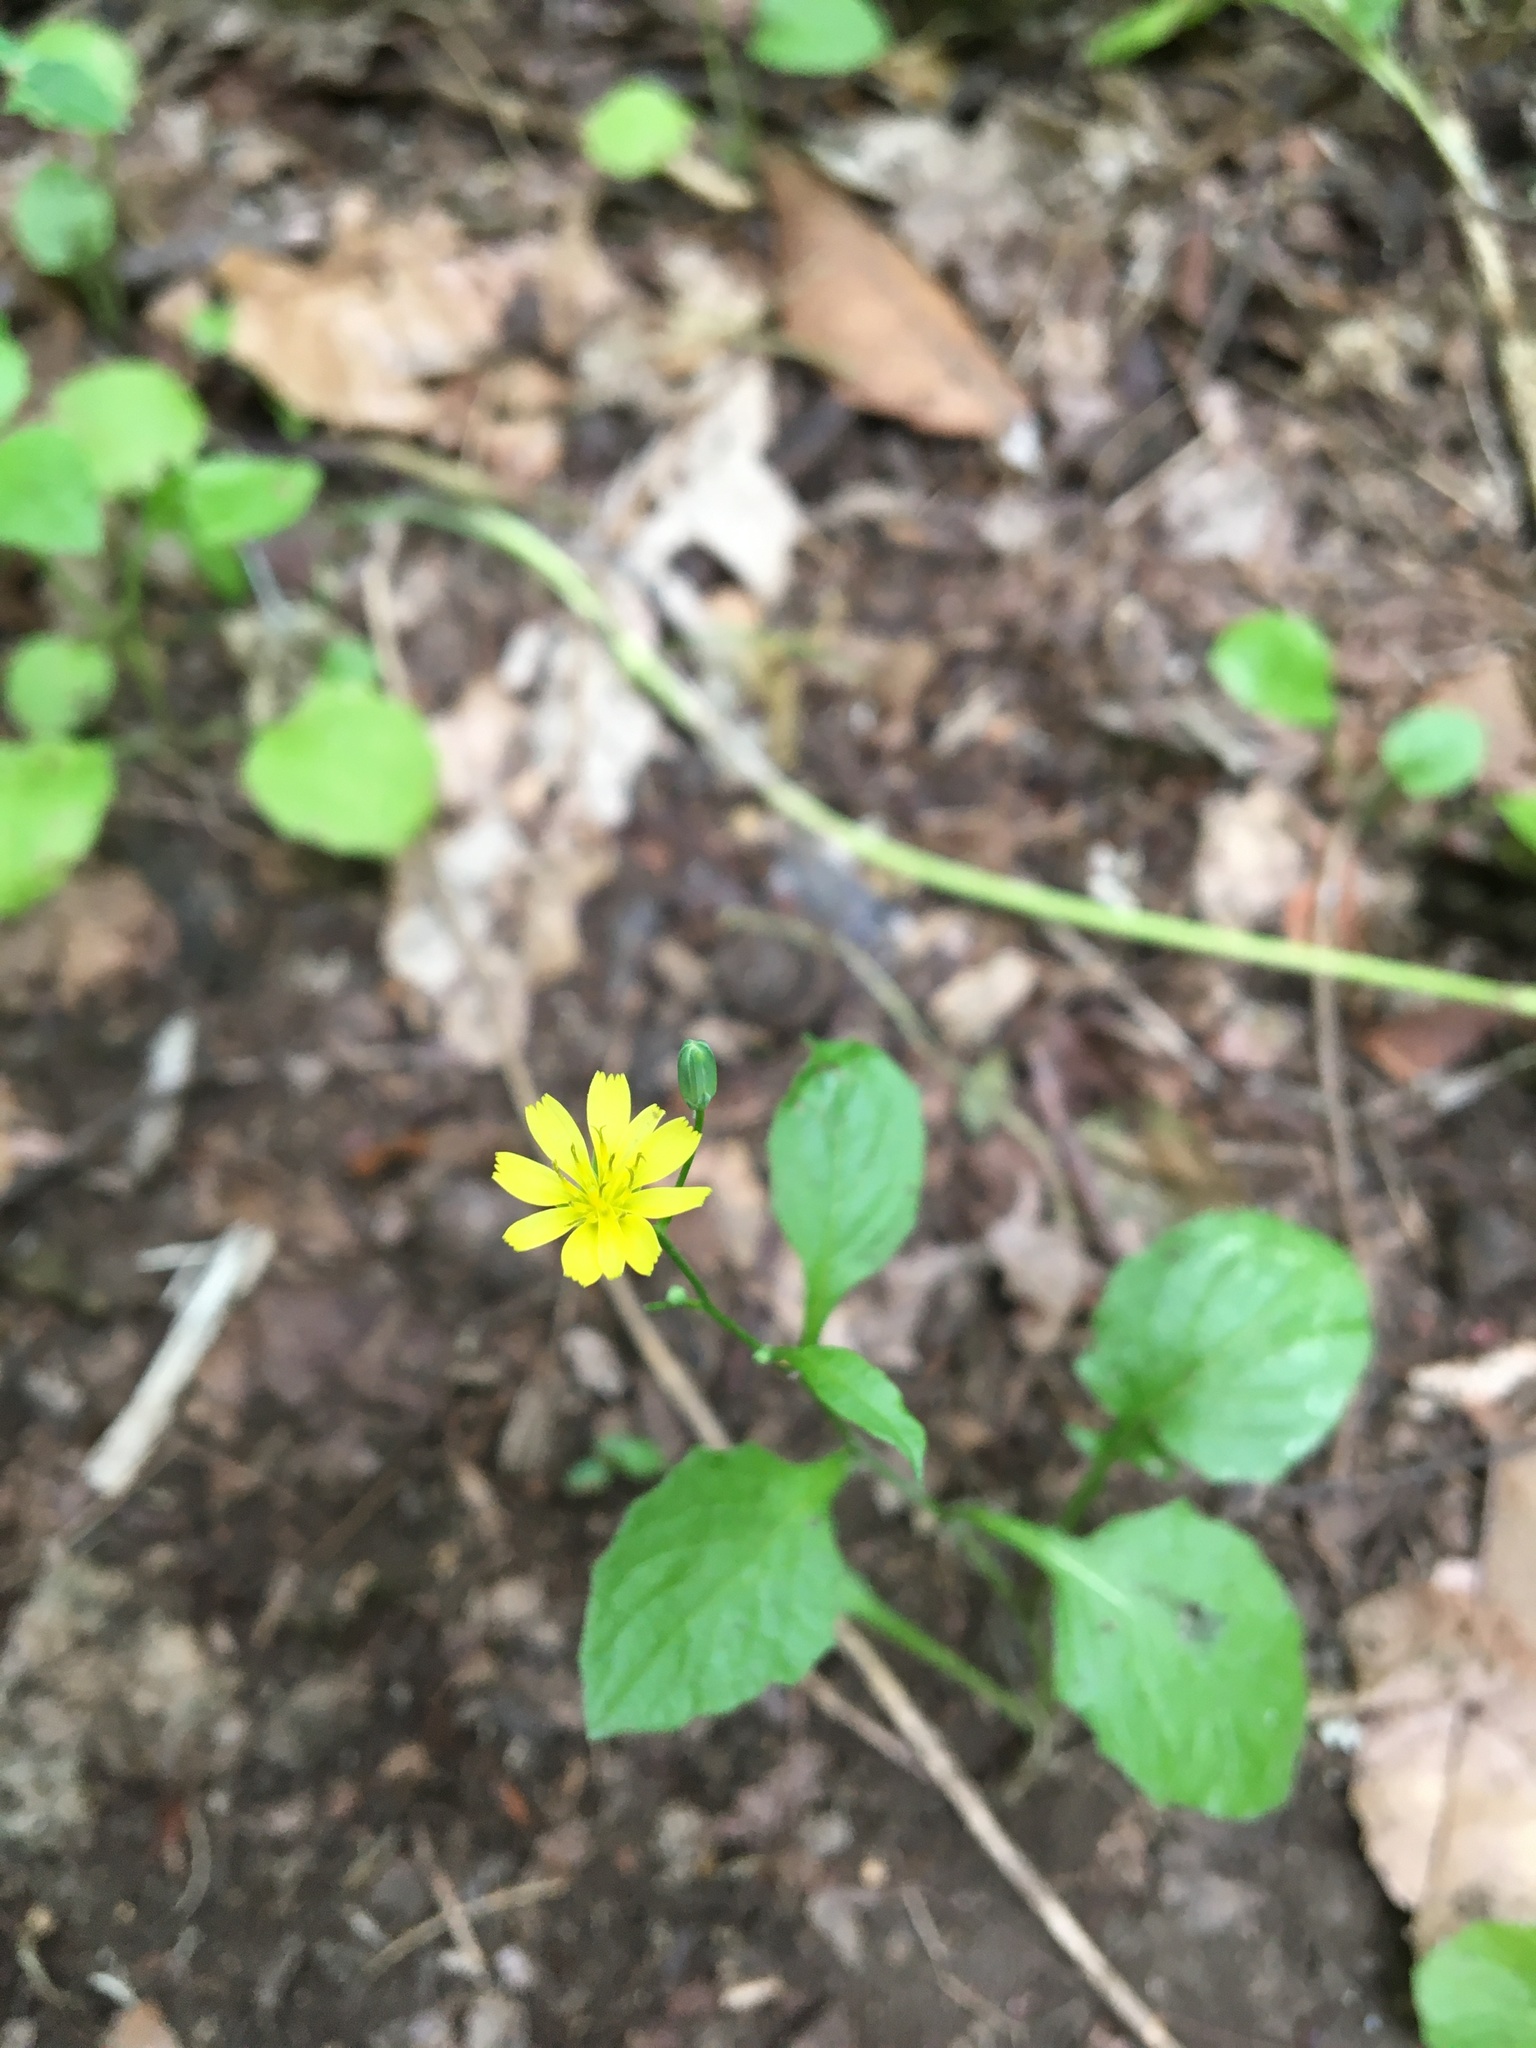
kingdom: Plantae
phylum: Tracheophyta
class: Magnoliopsida
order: Asterales
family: Asteraceae
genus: Lapsana
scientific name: Lapsana communis
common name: Nipplewort
